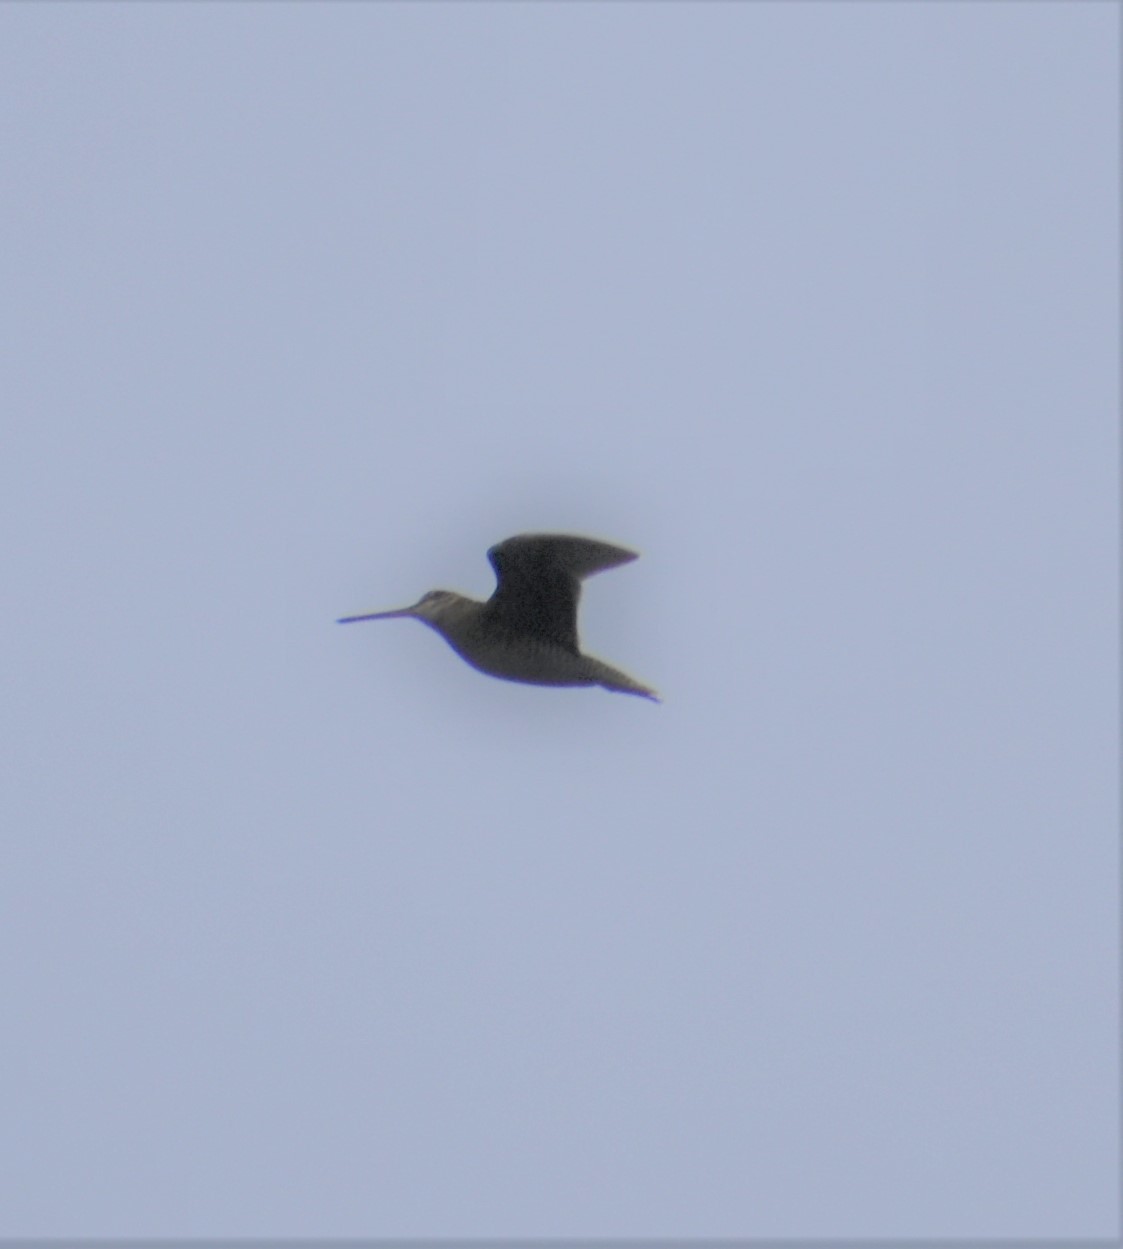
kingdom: Animalia
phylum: Chordata
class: Aves
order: Charadriiformes
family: Scolopacidae
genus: Gallinago
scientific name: Gallinago delicata
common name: Wilson's snipe
